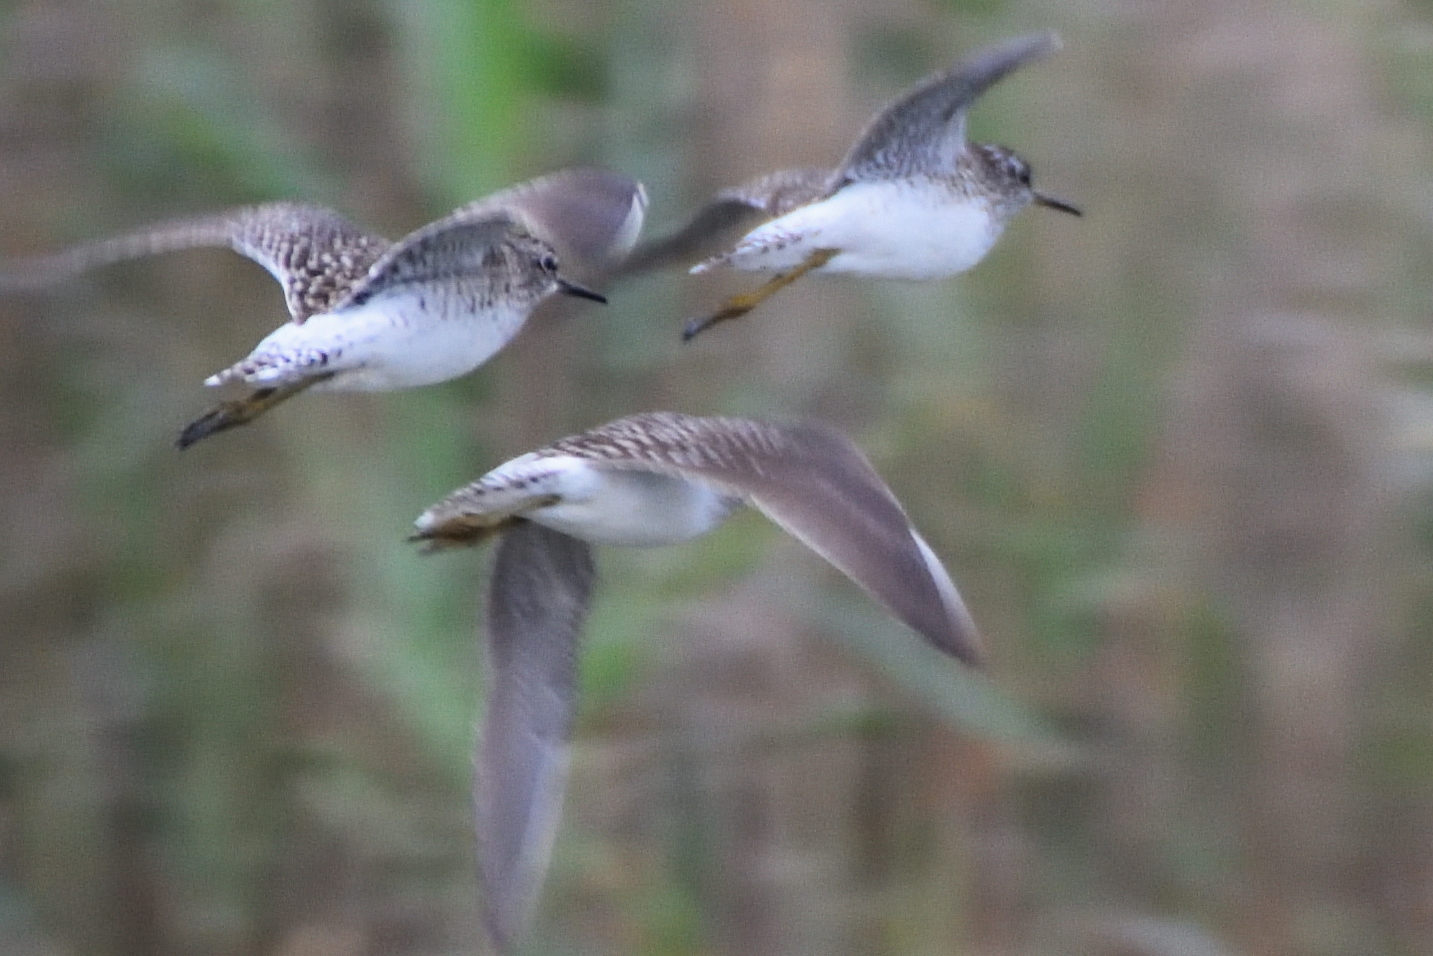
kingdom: Animalia
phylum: Chordata
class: Aves
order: Charadriiformes
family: Scolopacidae
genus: Tringa
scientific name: Tringa glareola
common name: Wood sandpiper
